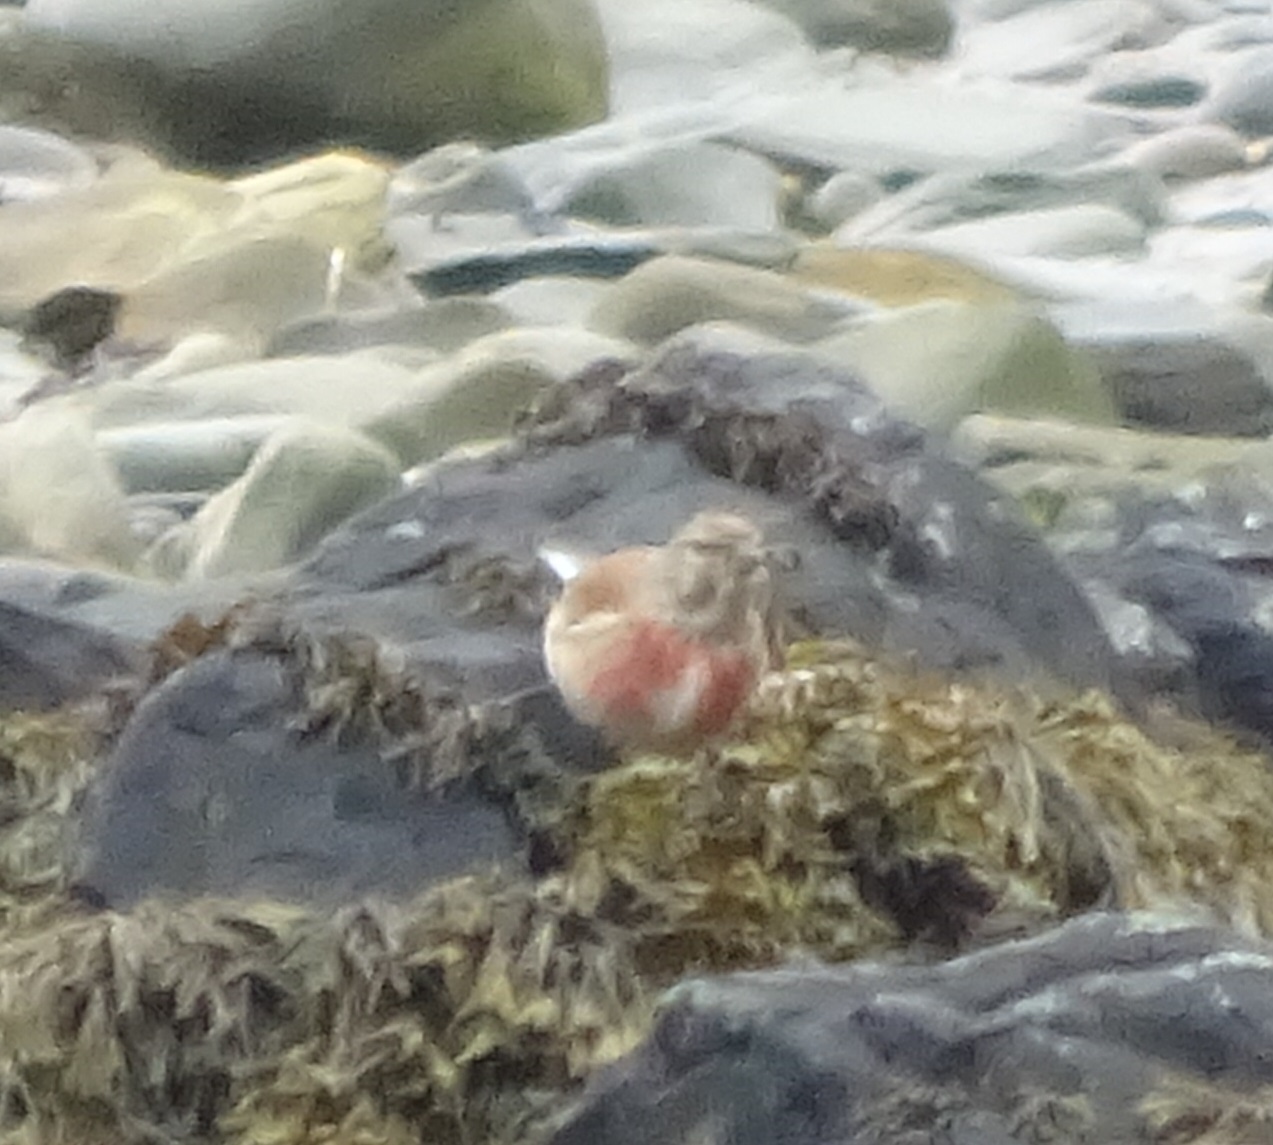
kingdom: Animalia
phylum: Chordata
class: Aves
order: Passeriformes
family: Fringillidae
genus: Linaria
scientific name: Linaria cannabina
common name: Common linnet
